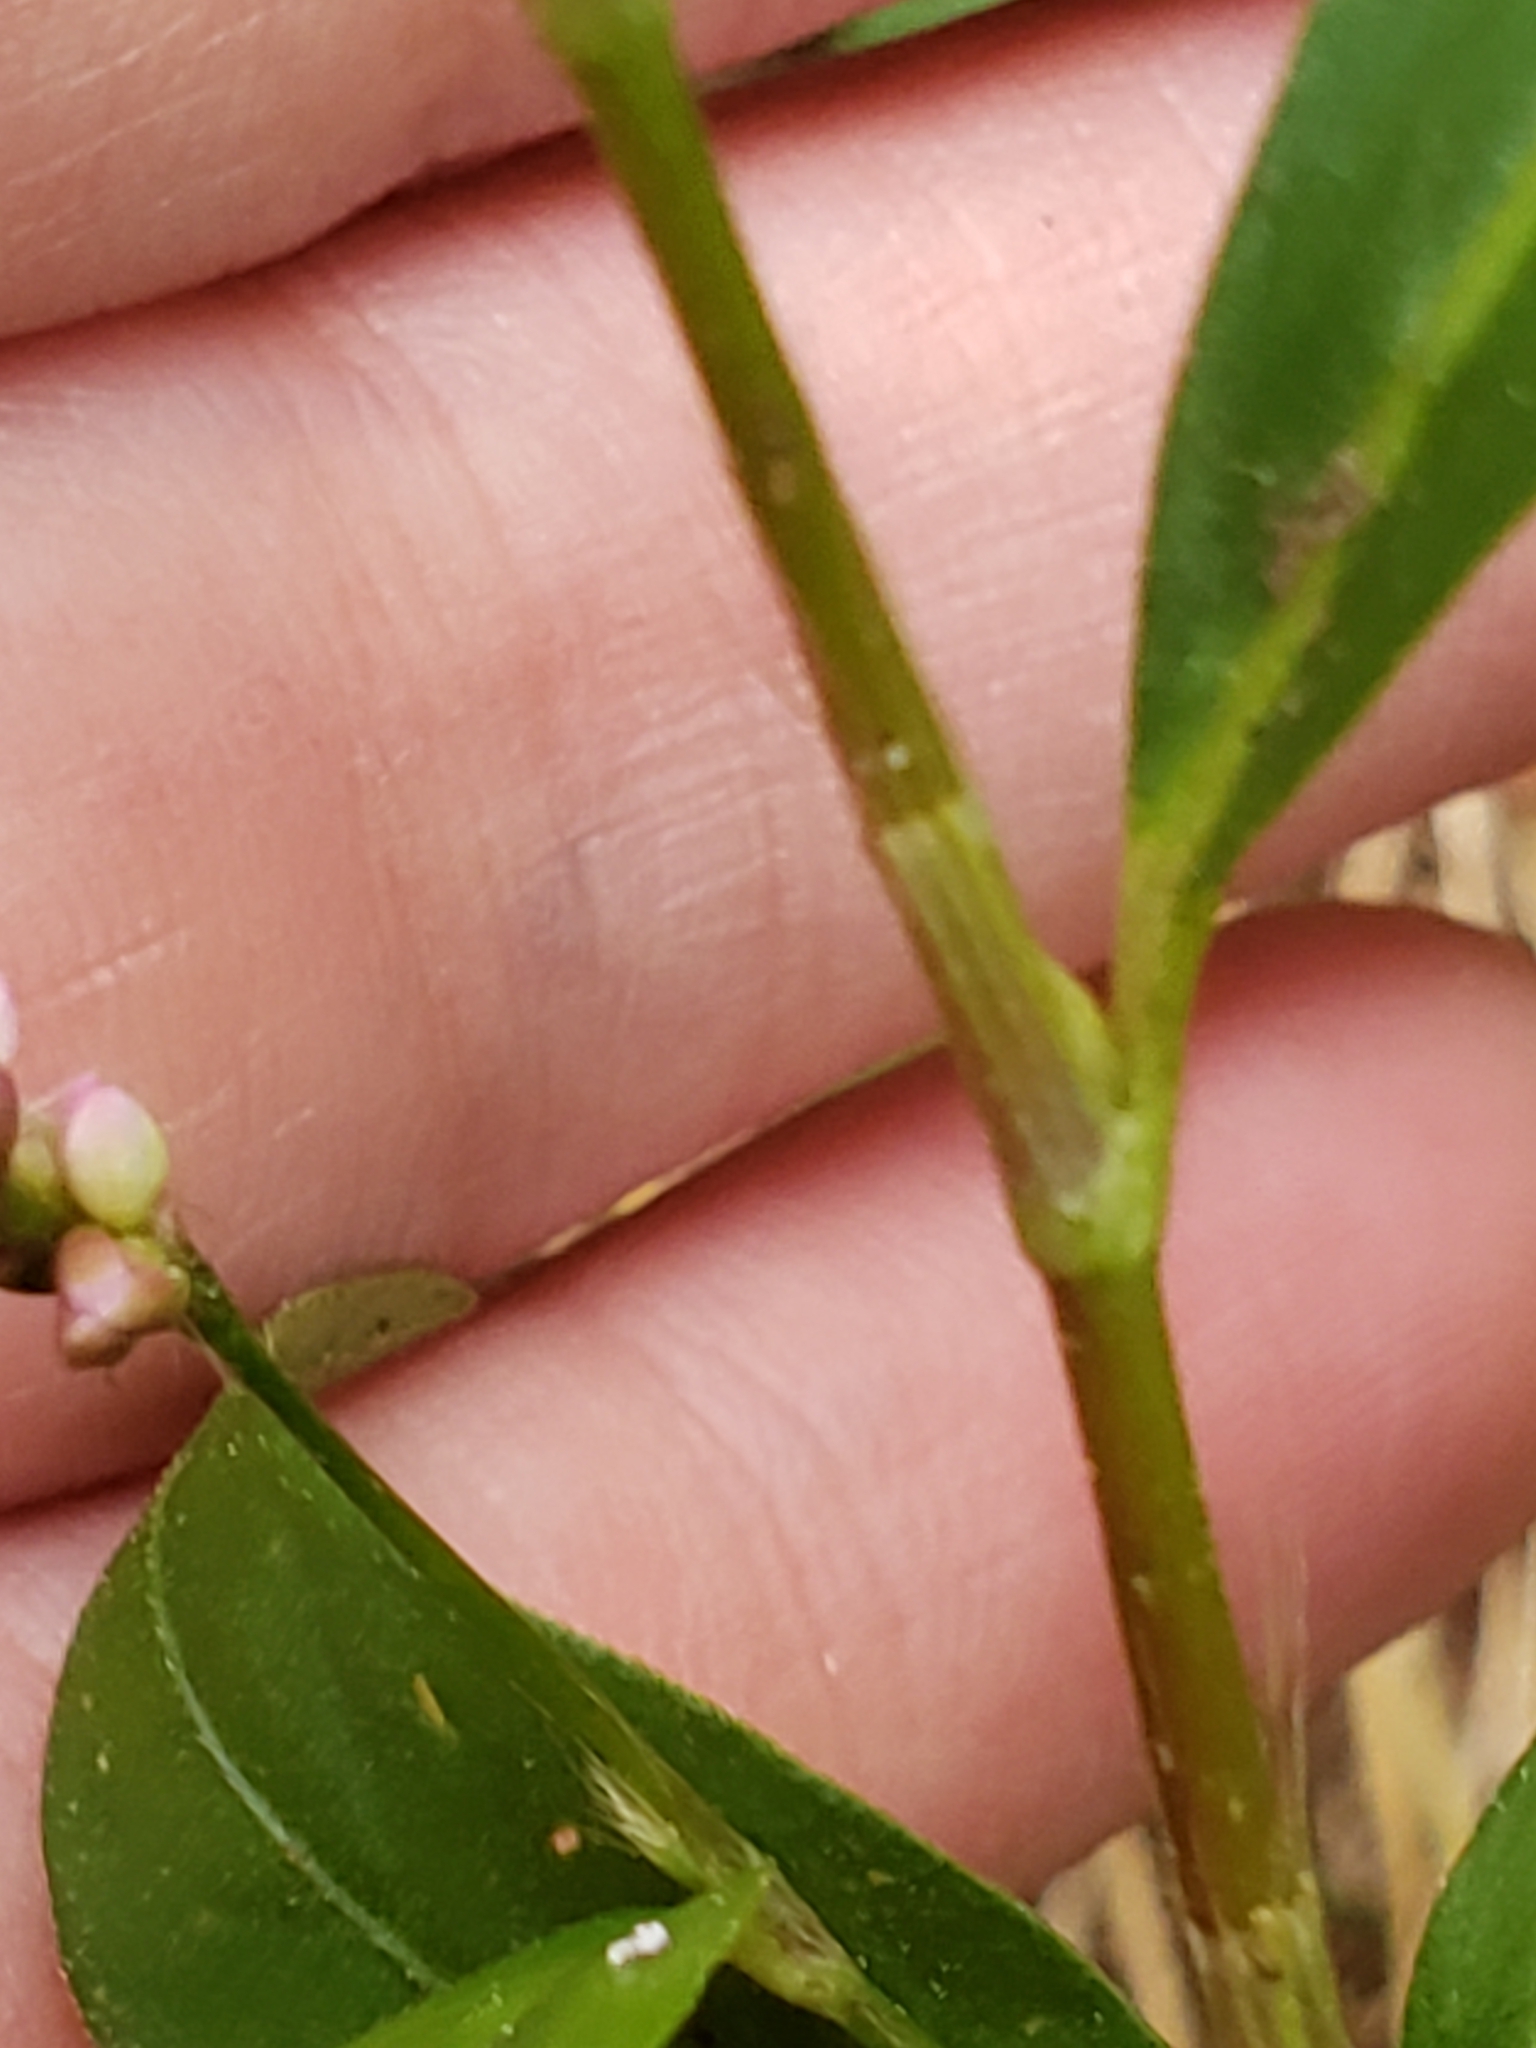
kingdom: Plantae
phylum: Tracheophyta
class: Magnoliopsida
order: Caryophyllales
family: Polygonaceae
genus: Persicaria
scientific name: Persicaria longiseta
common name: Bristly lady's-thumb
